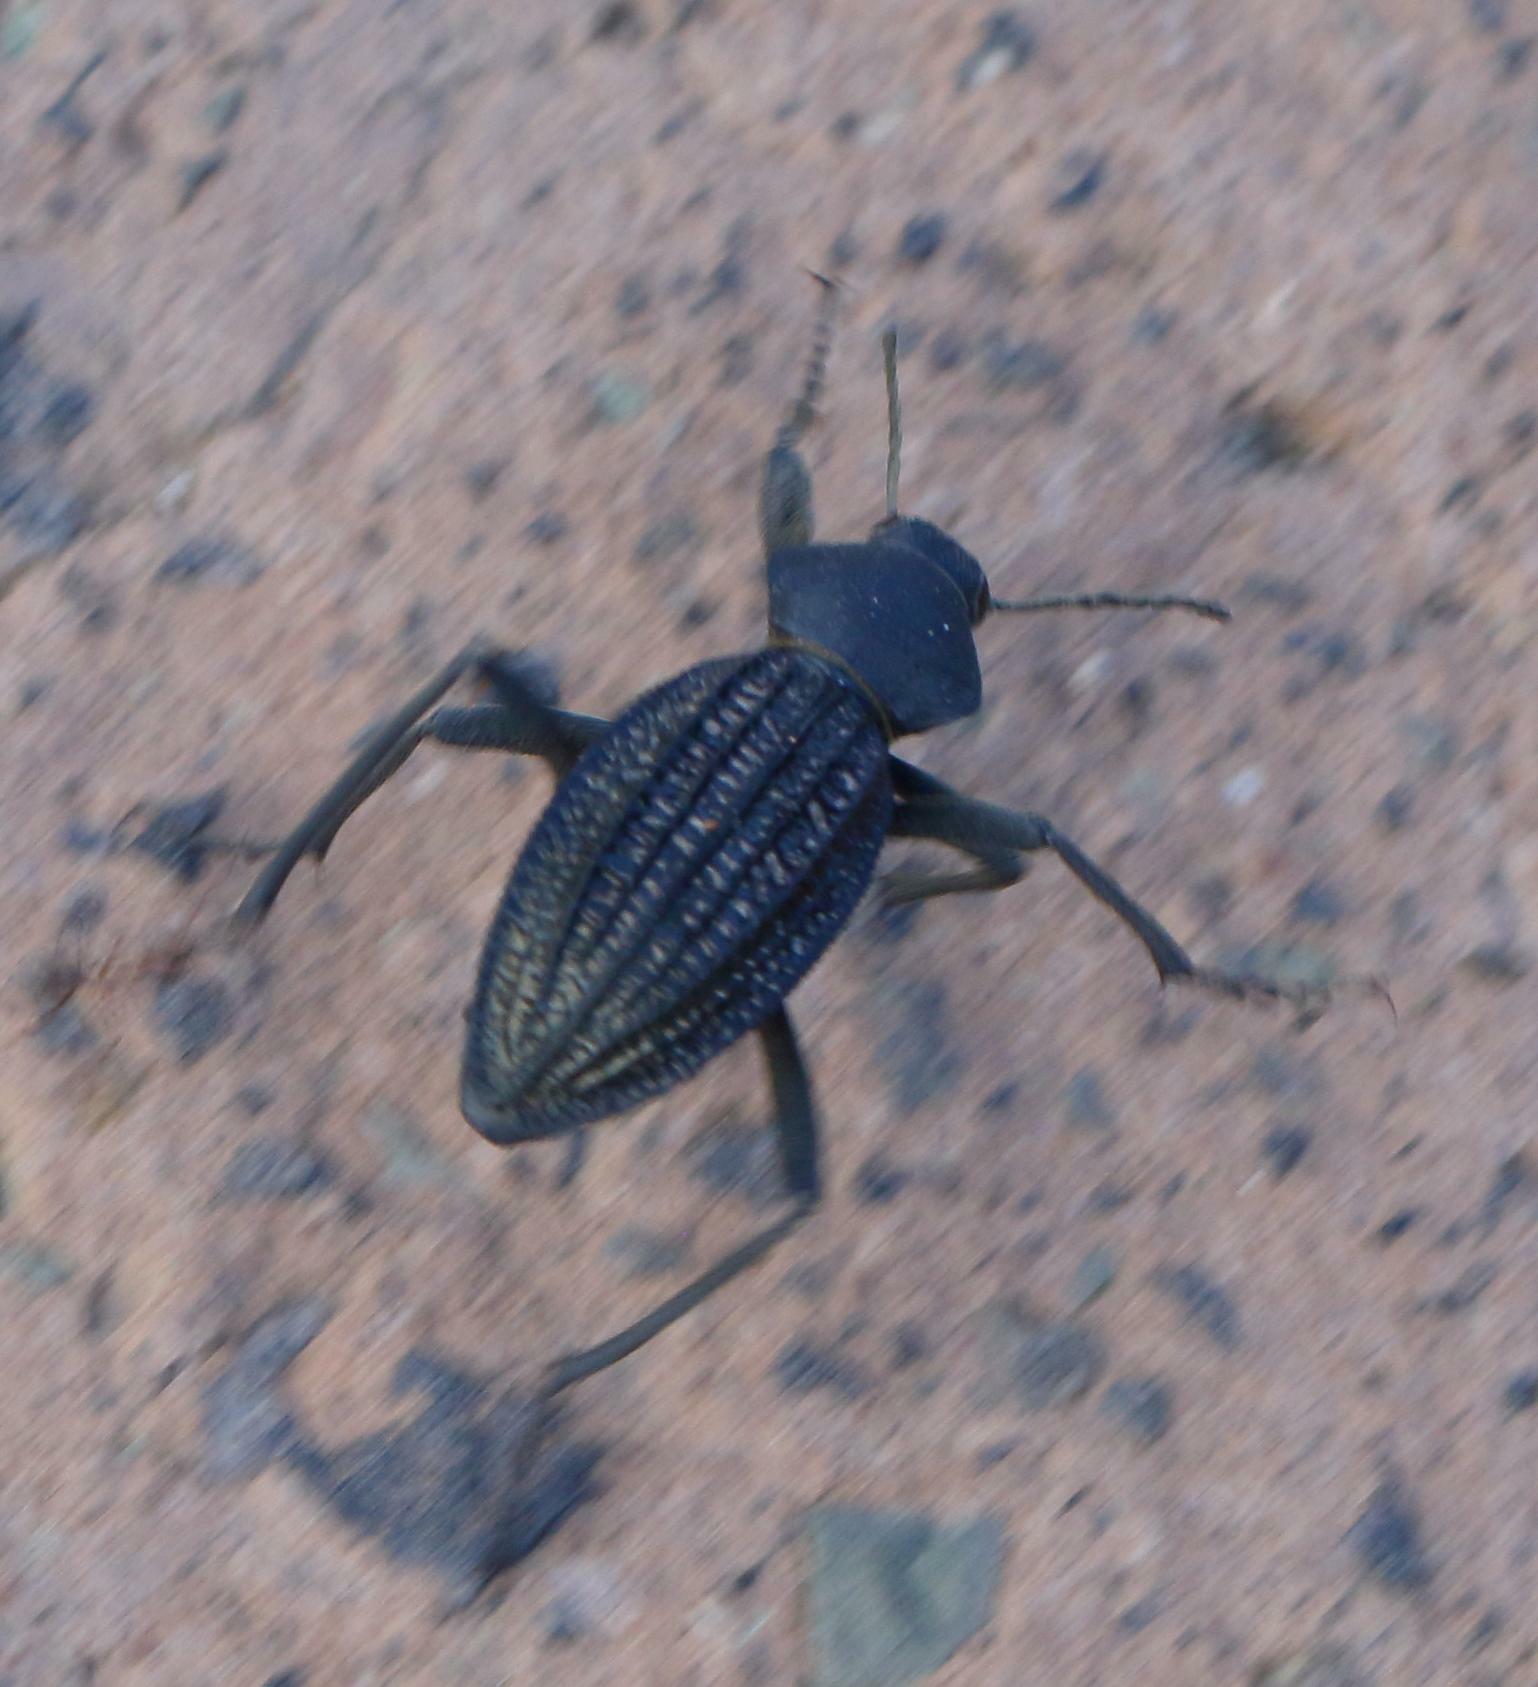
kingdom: Animalia
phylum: Arthropoda
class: Insecta
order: Coleoptera
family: Tenebrionidae
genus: Somaticus
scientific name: Somaticus aeneus
